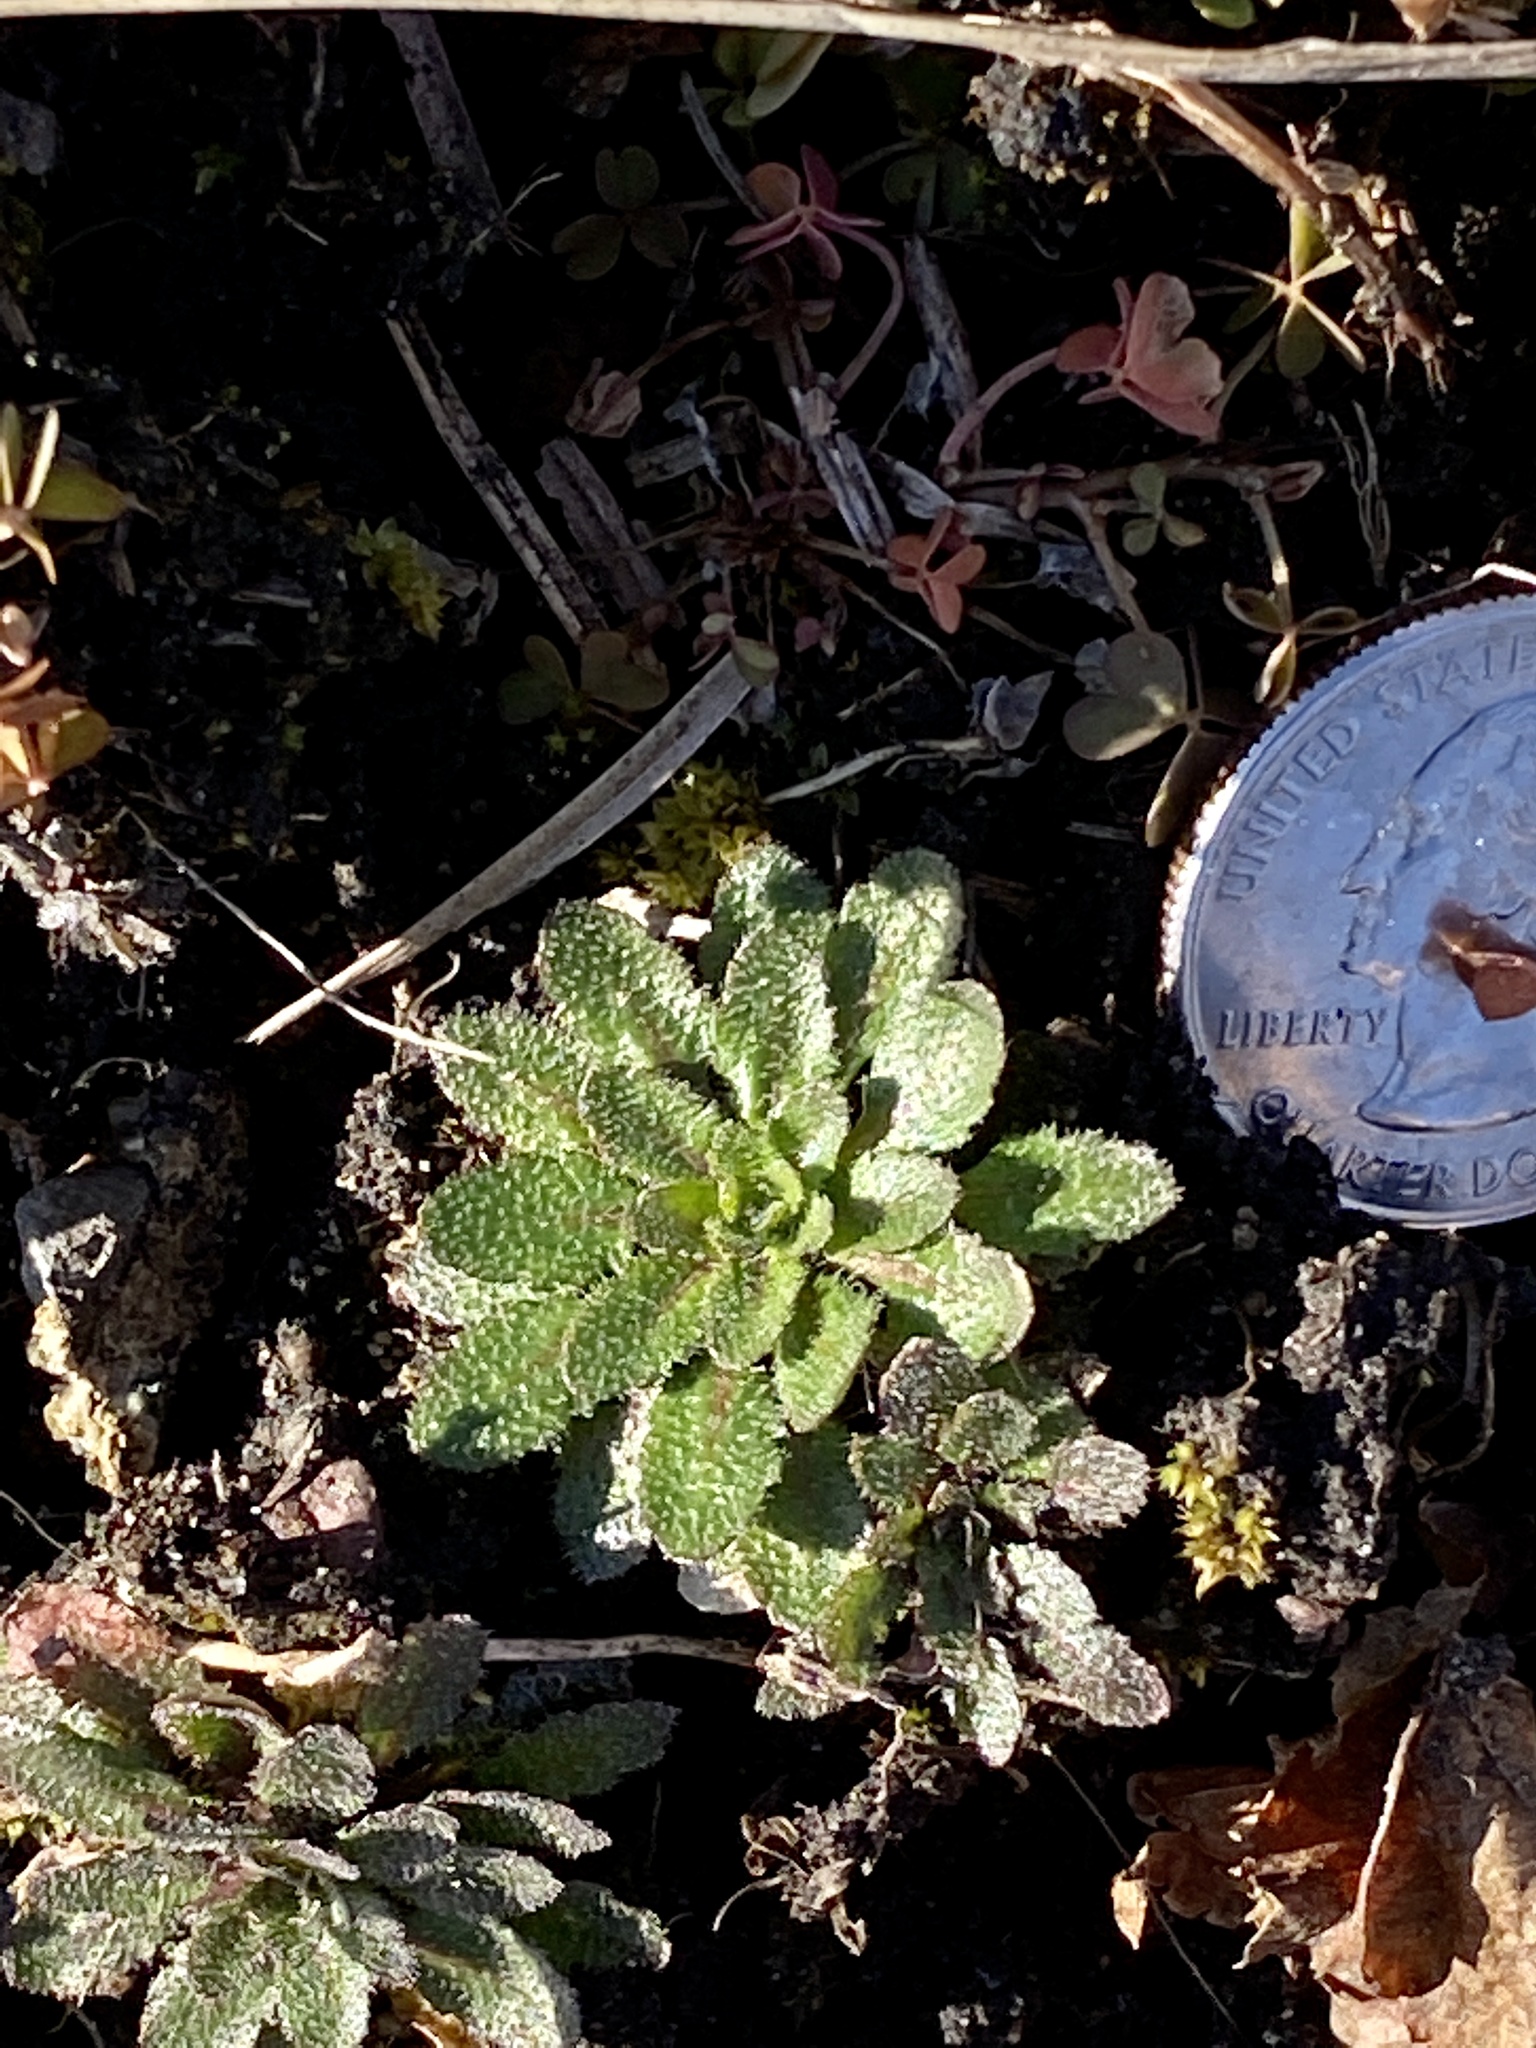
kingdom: Plantae
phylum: Tracheophyta
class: Magnoliopsida
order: Brassicales
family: Brassicaceae
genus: Draba
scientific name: Draba verna
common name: Spring draba
